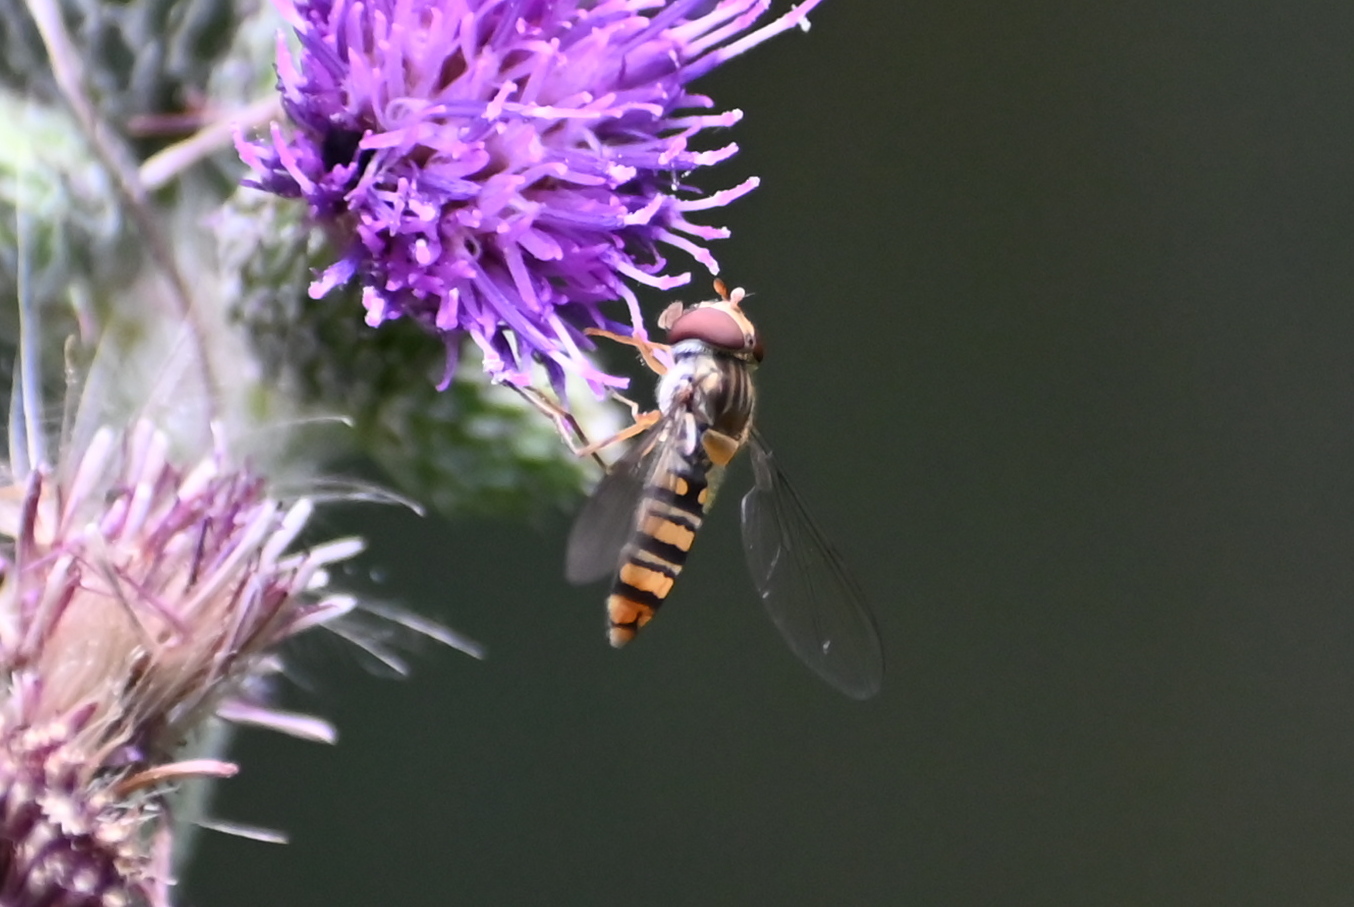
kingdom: Animalia
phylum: Arthropoda
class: Insecta
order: Diptera
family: Syrphidae
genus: Episyrphus
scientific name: Episyrphus balteatus
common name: Marmalade hoverfly
